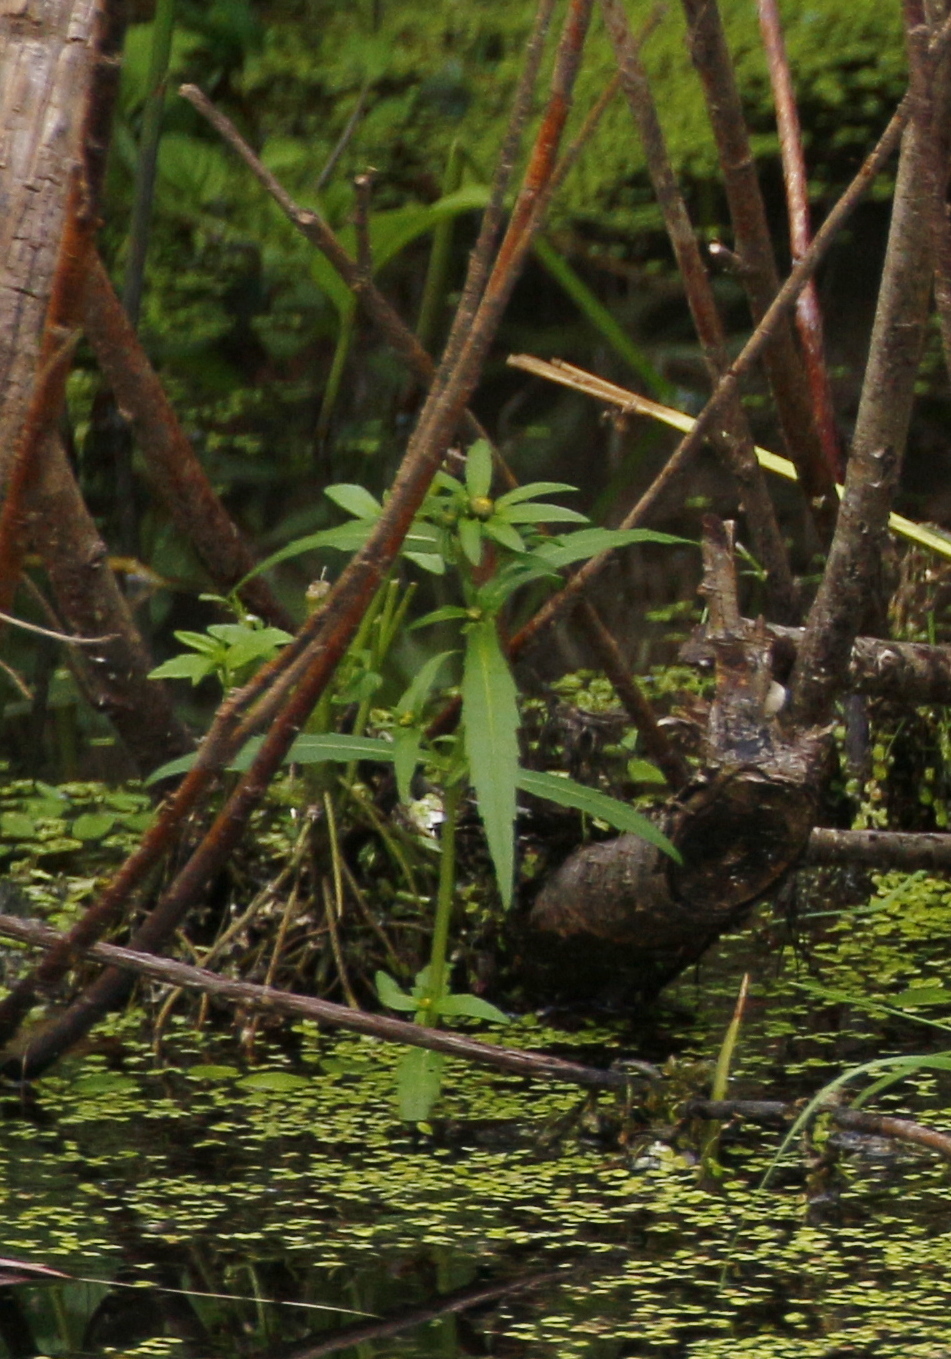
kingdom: Plantae
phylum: Tracheophyta
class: Magnoliopsida
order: Asterales
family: Asteraceae
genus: Bidens
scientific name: Bidens cernua
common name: Nodding bur-marigold
